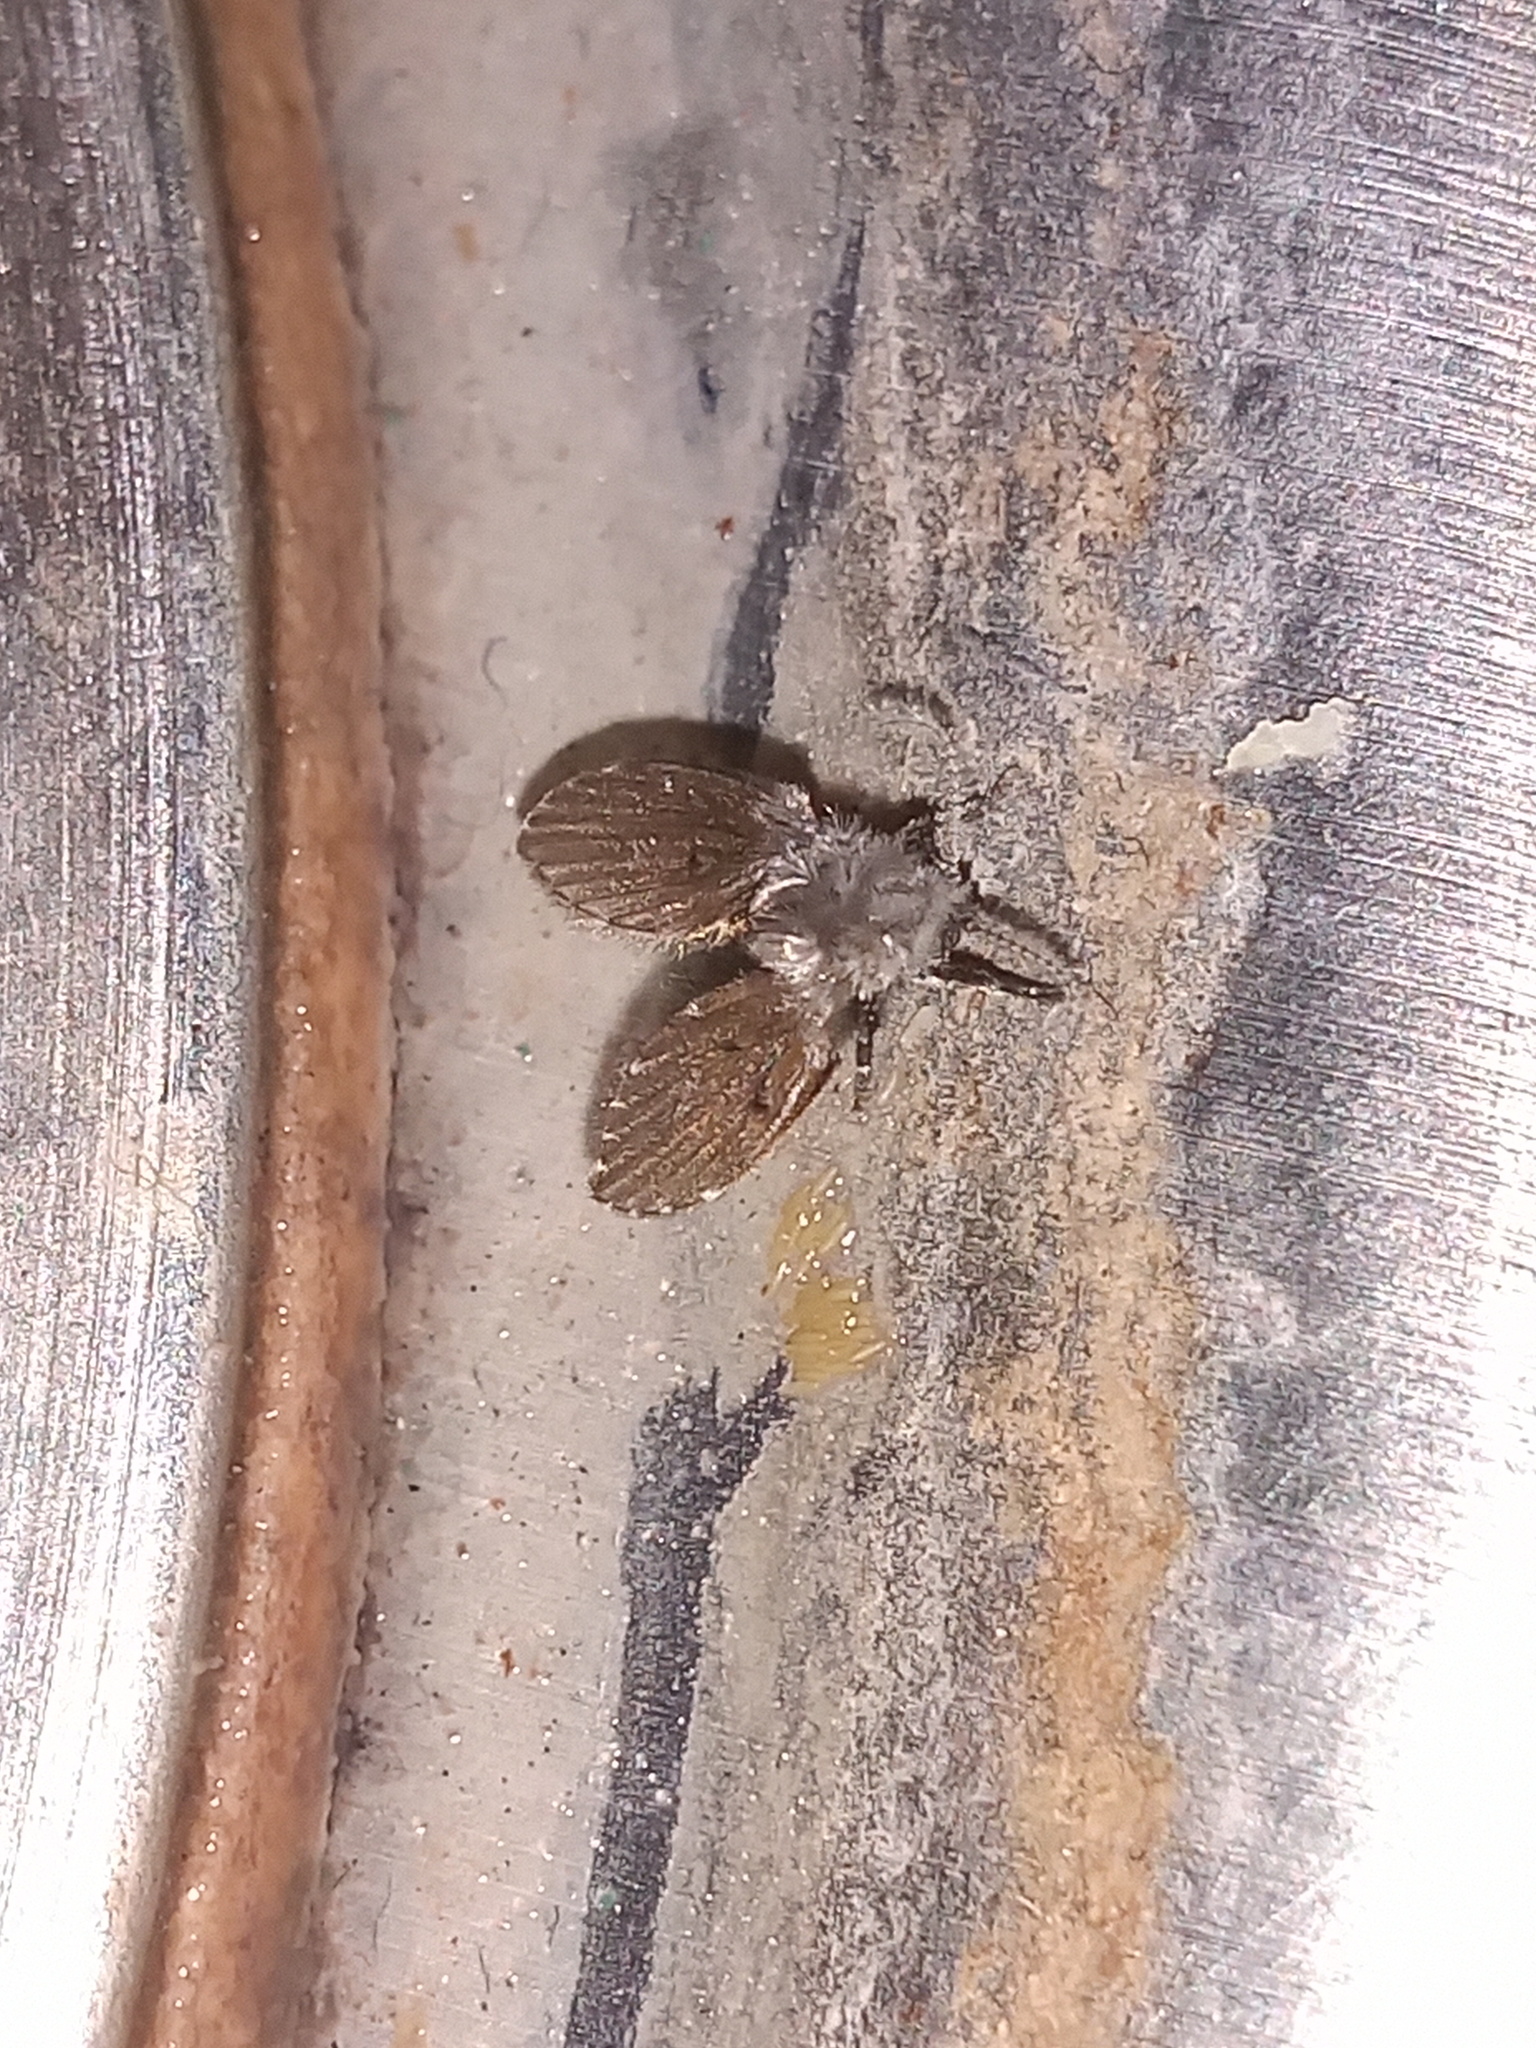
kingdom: Animalia
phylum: Arthropoda
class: Insecta
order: Diptera
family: Psychodidae
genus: Clogmia
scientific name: Clogmia albipunctatus
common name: White-spotted moth fly
